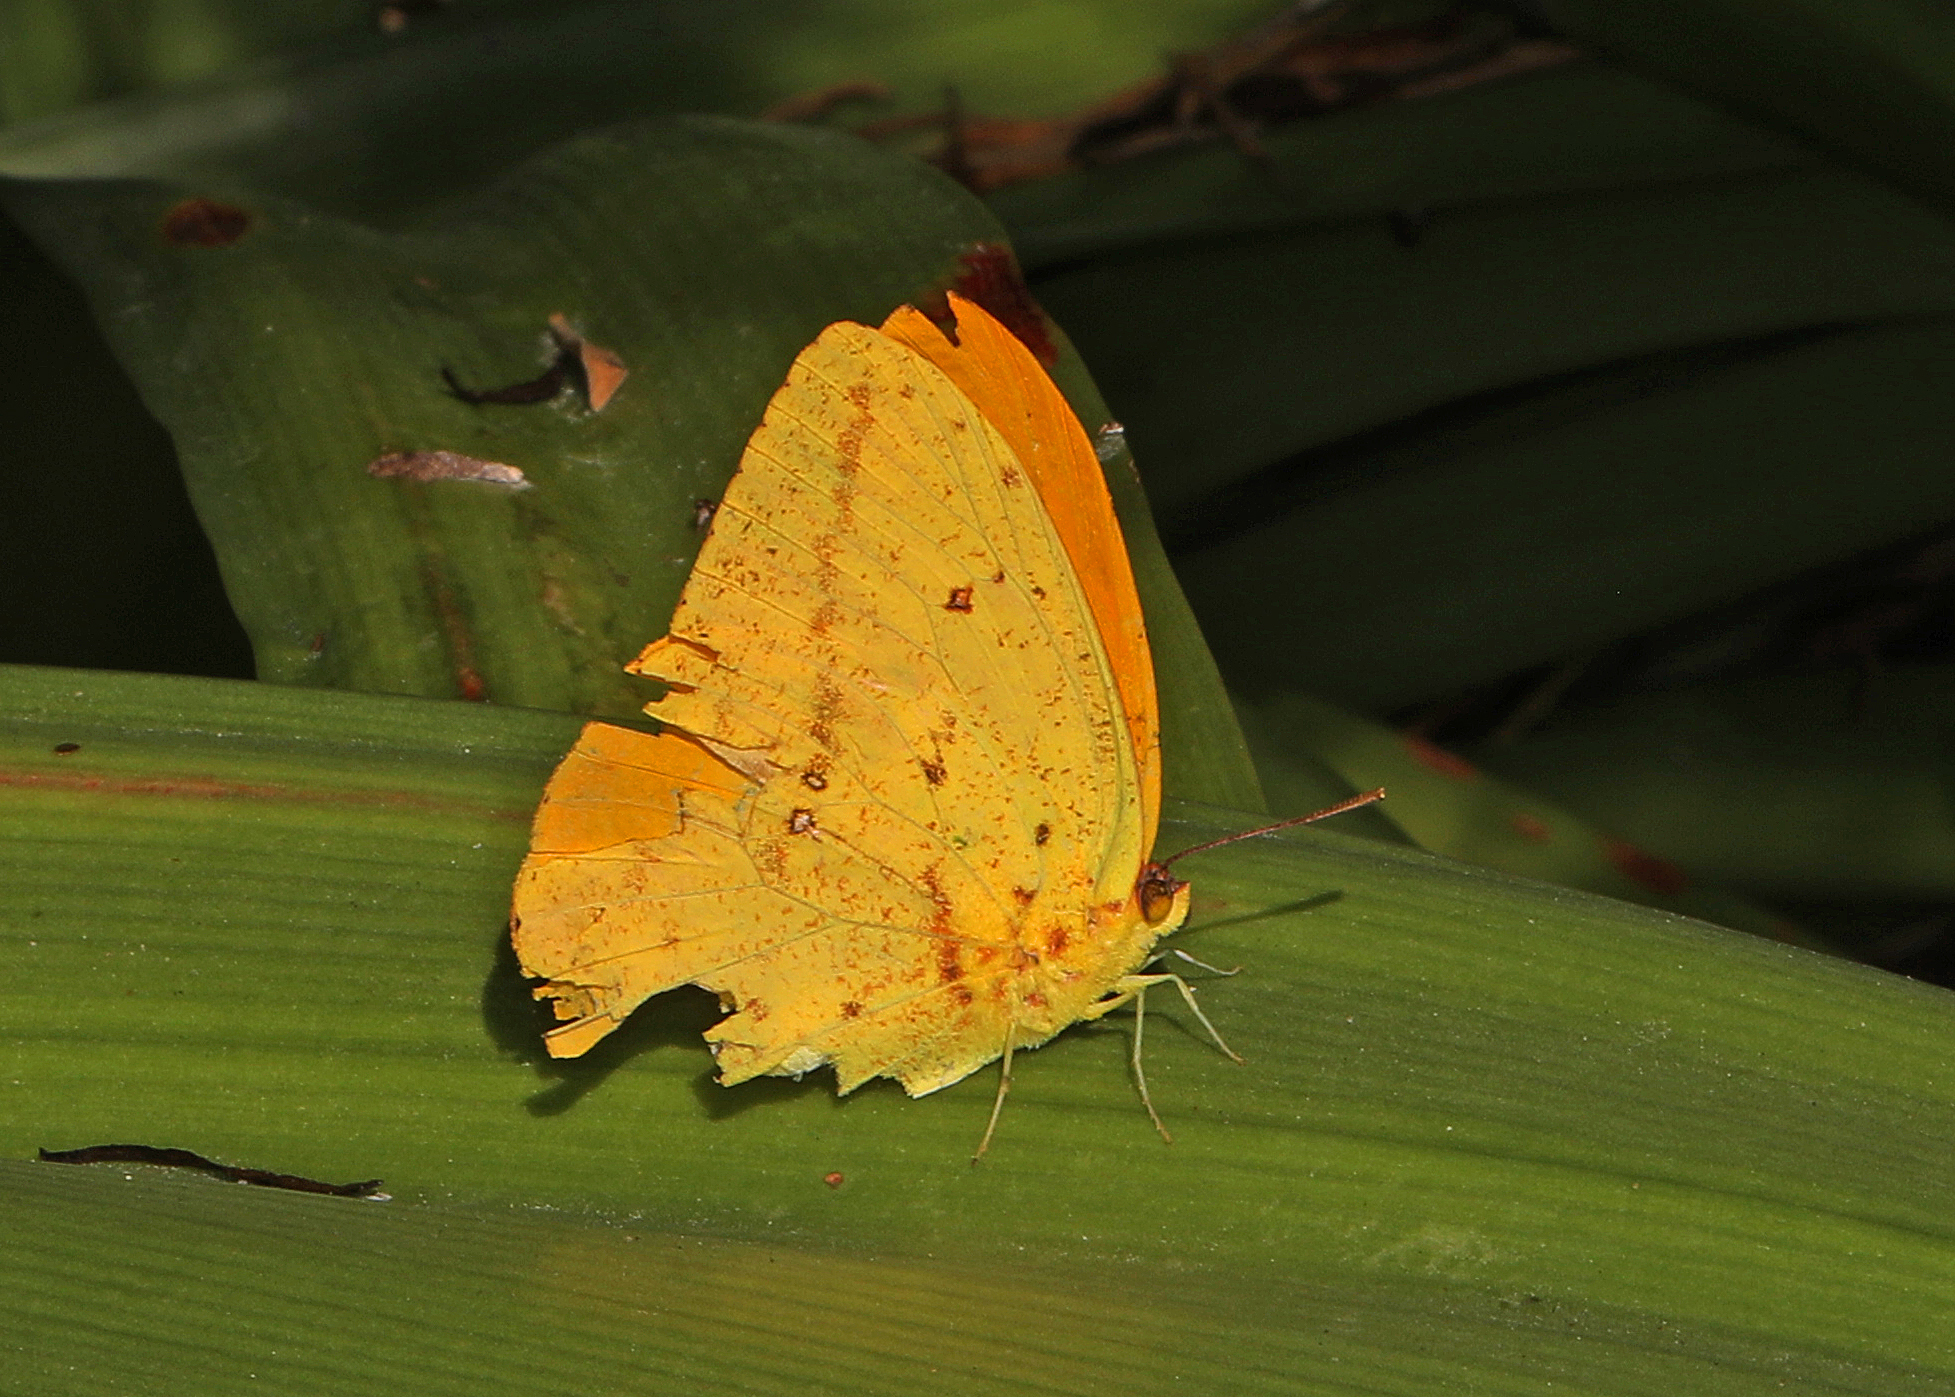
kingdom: Animalia
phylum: Arthropoda
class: Insecta
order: Lepidoptera
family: Pieridae
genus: Phoebis
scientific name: Phoebis agarithe
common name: Large orange sulphur
